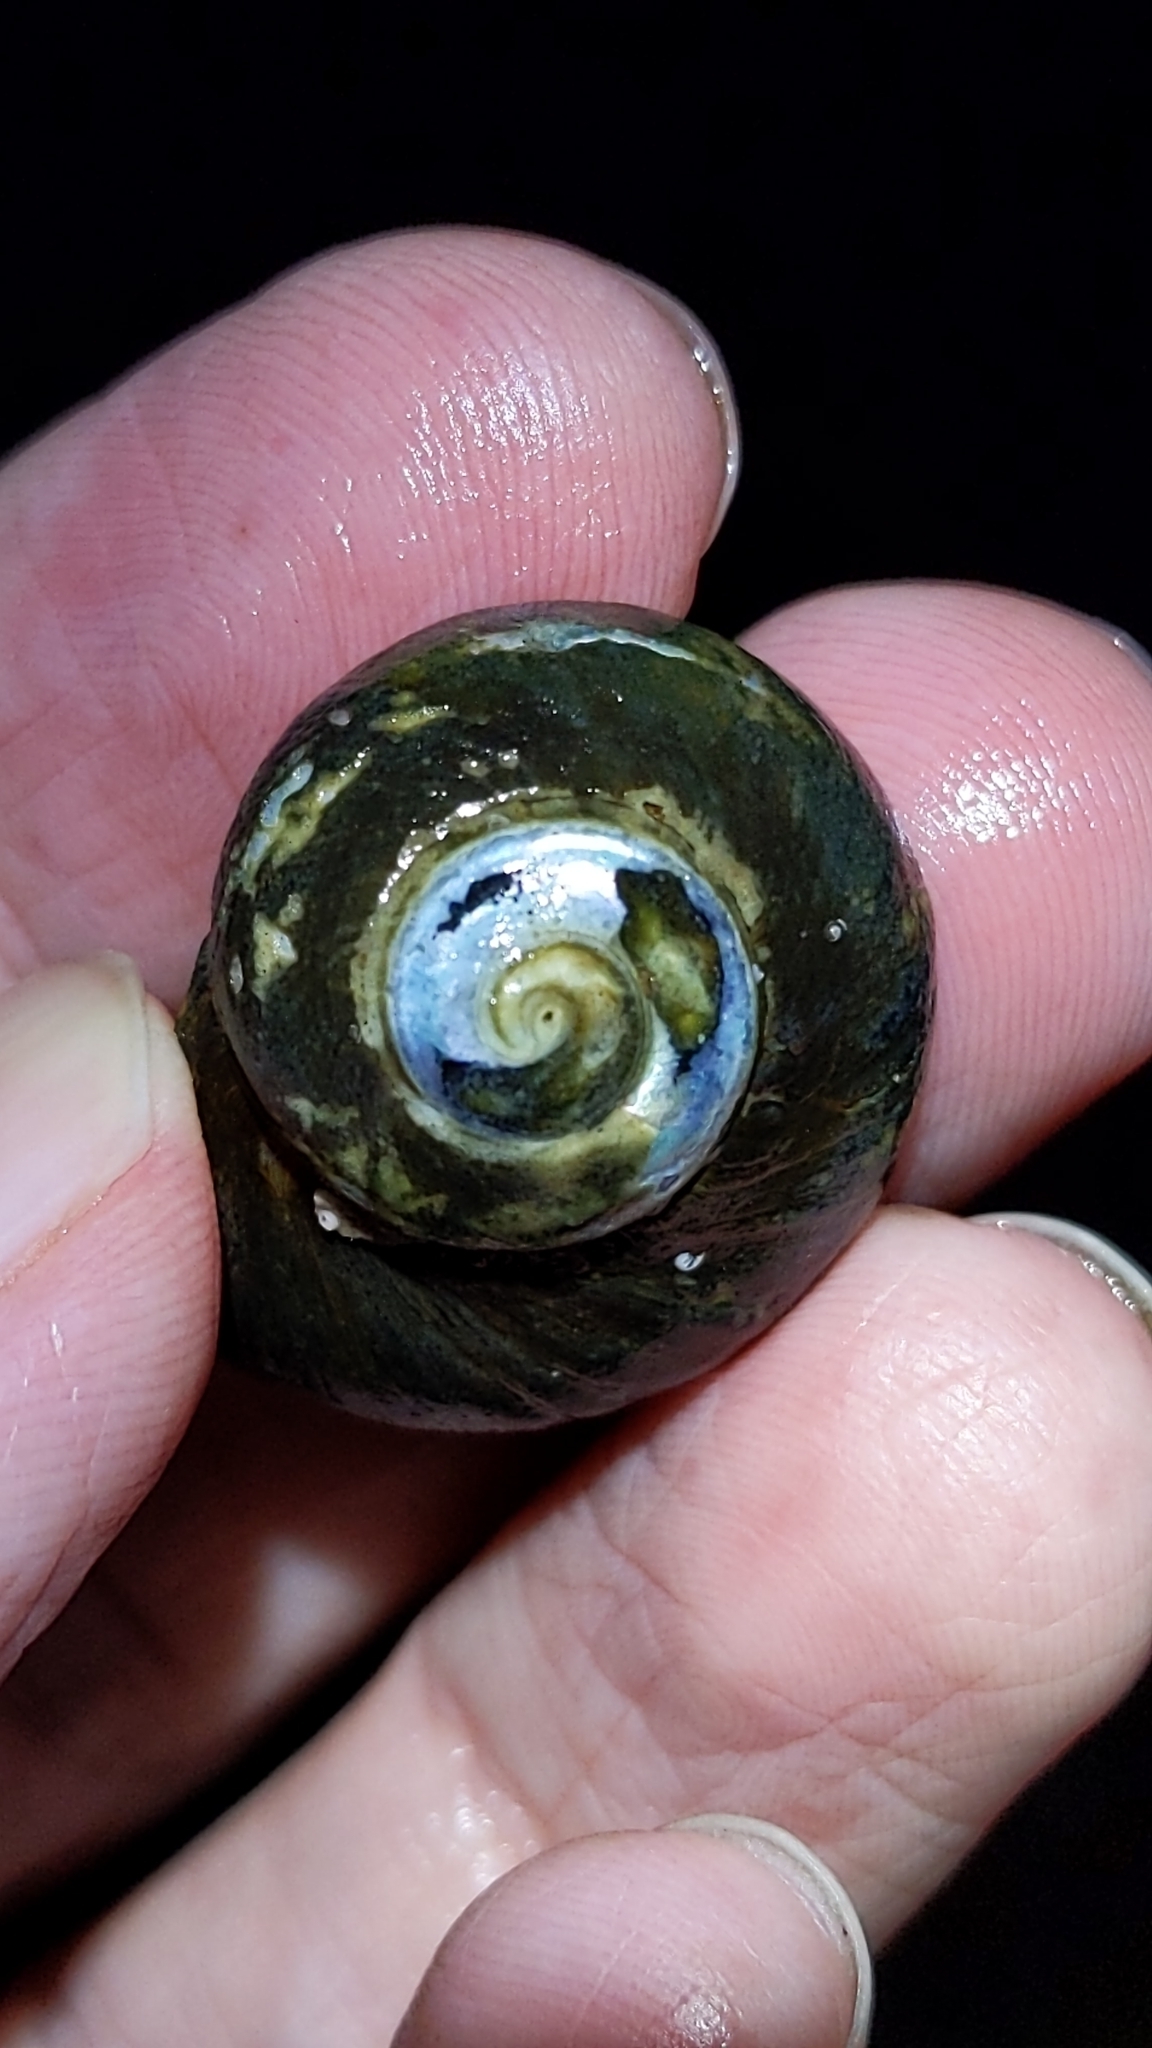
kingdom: Animalia
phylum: Mollusca
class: Gastropoda
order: Trochida
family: Turbinidae
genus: Lunella
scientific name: Lunella smaragda
